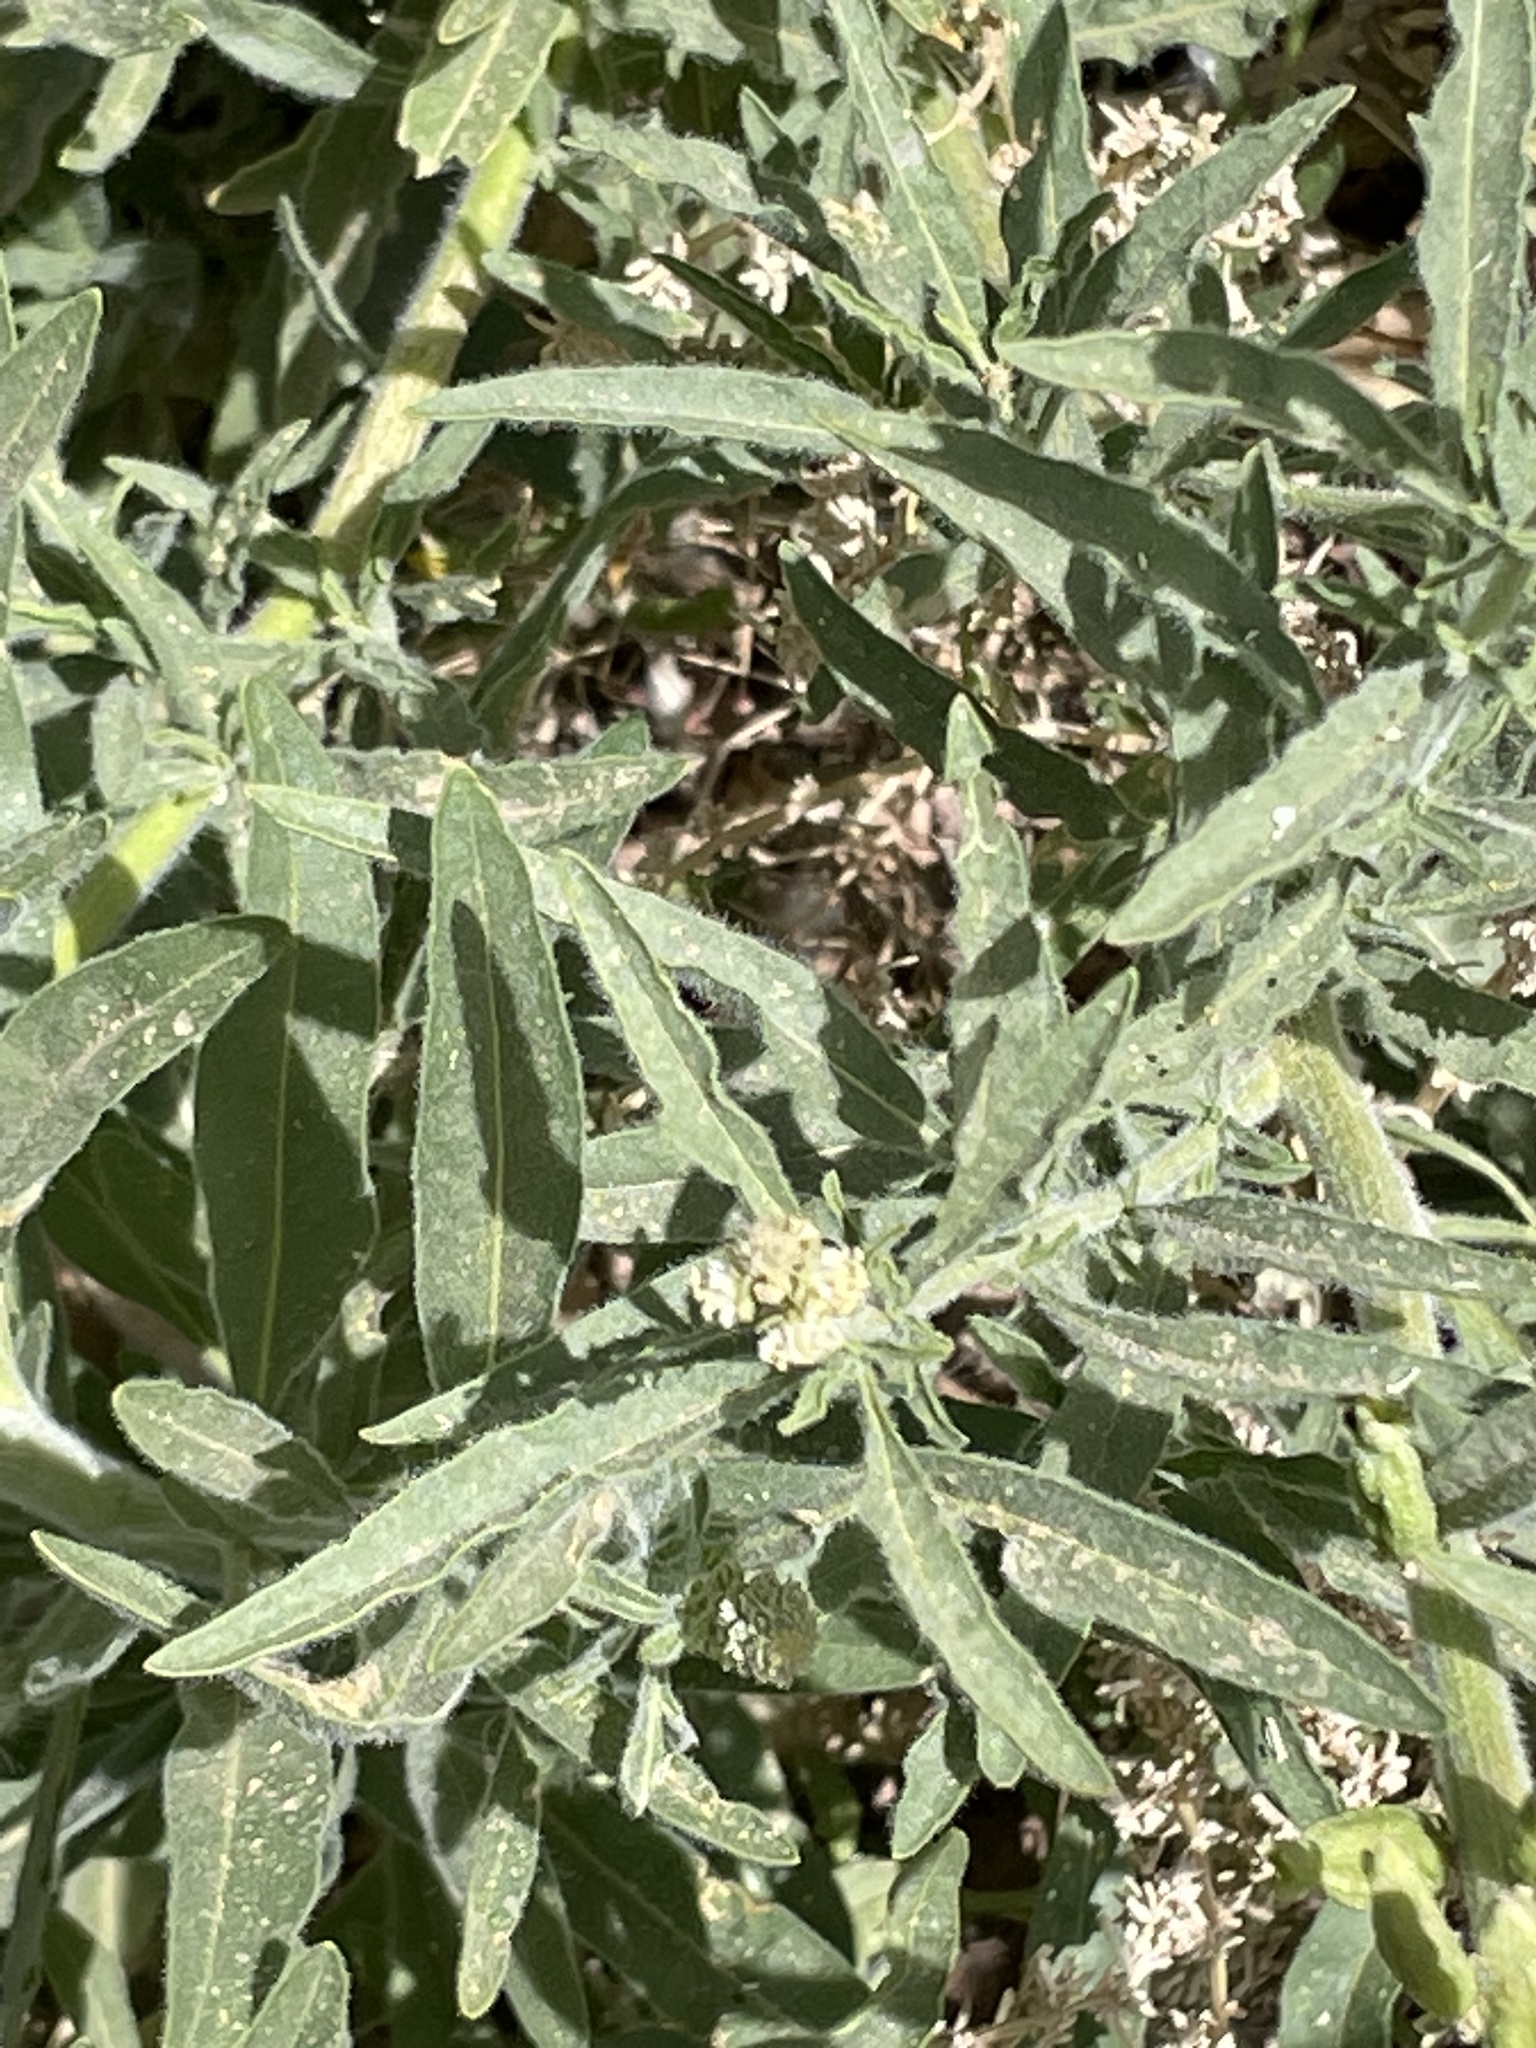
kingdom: Plantae
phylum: Tracheophyta
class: Magnoliopsida
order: Brassicales
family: Resedaceae
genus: Reseda
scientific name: Reseda villosa
